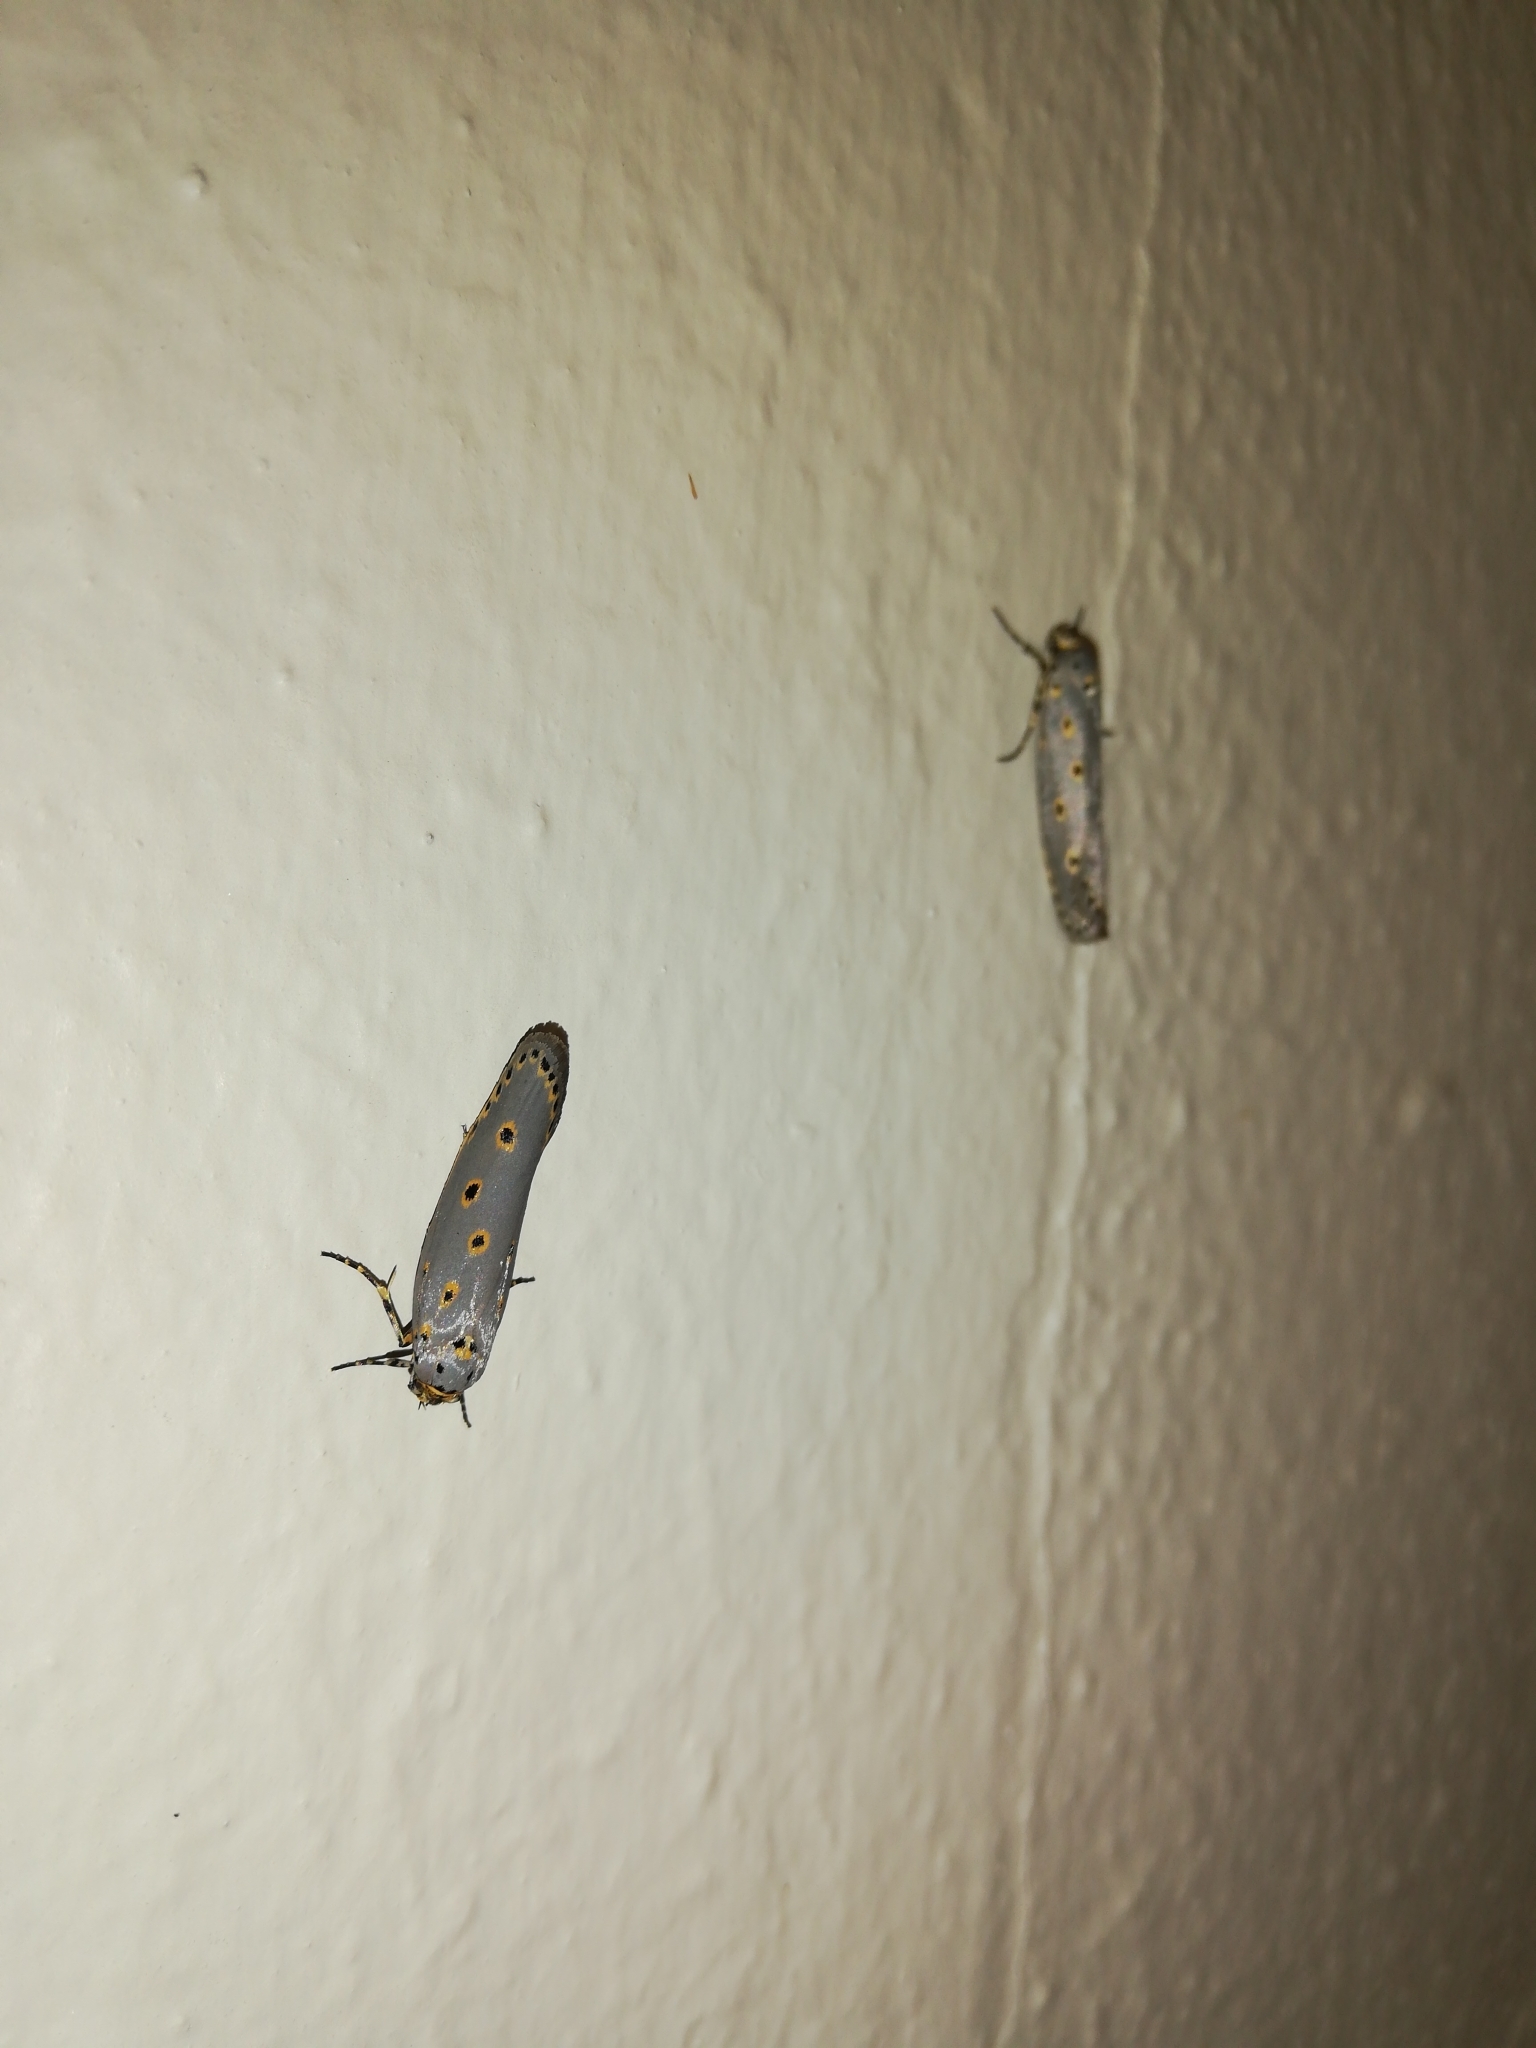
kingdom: Animalia
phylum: Arthropoda
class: Insecta
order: Lepidoptera
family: Ethmiidae
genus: Ethmia
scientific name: Ethmia circumdatella
